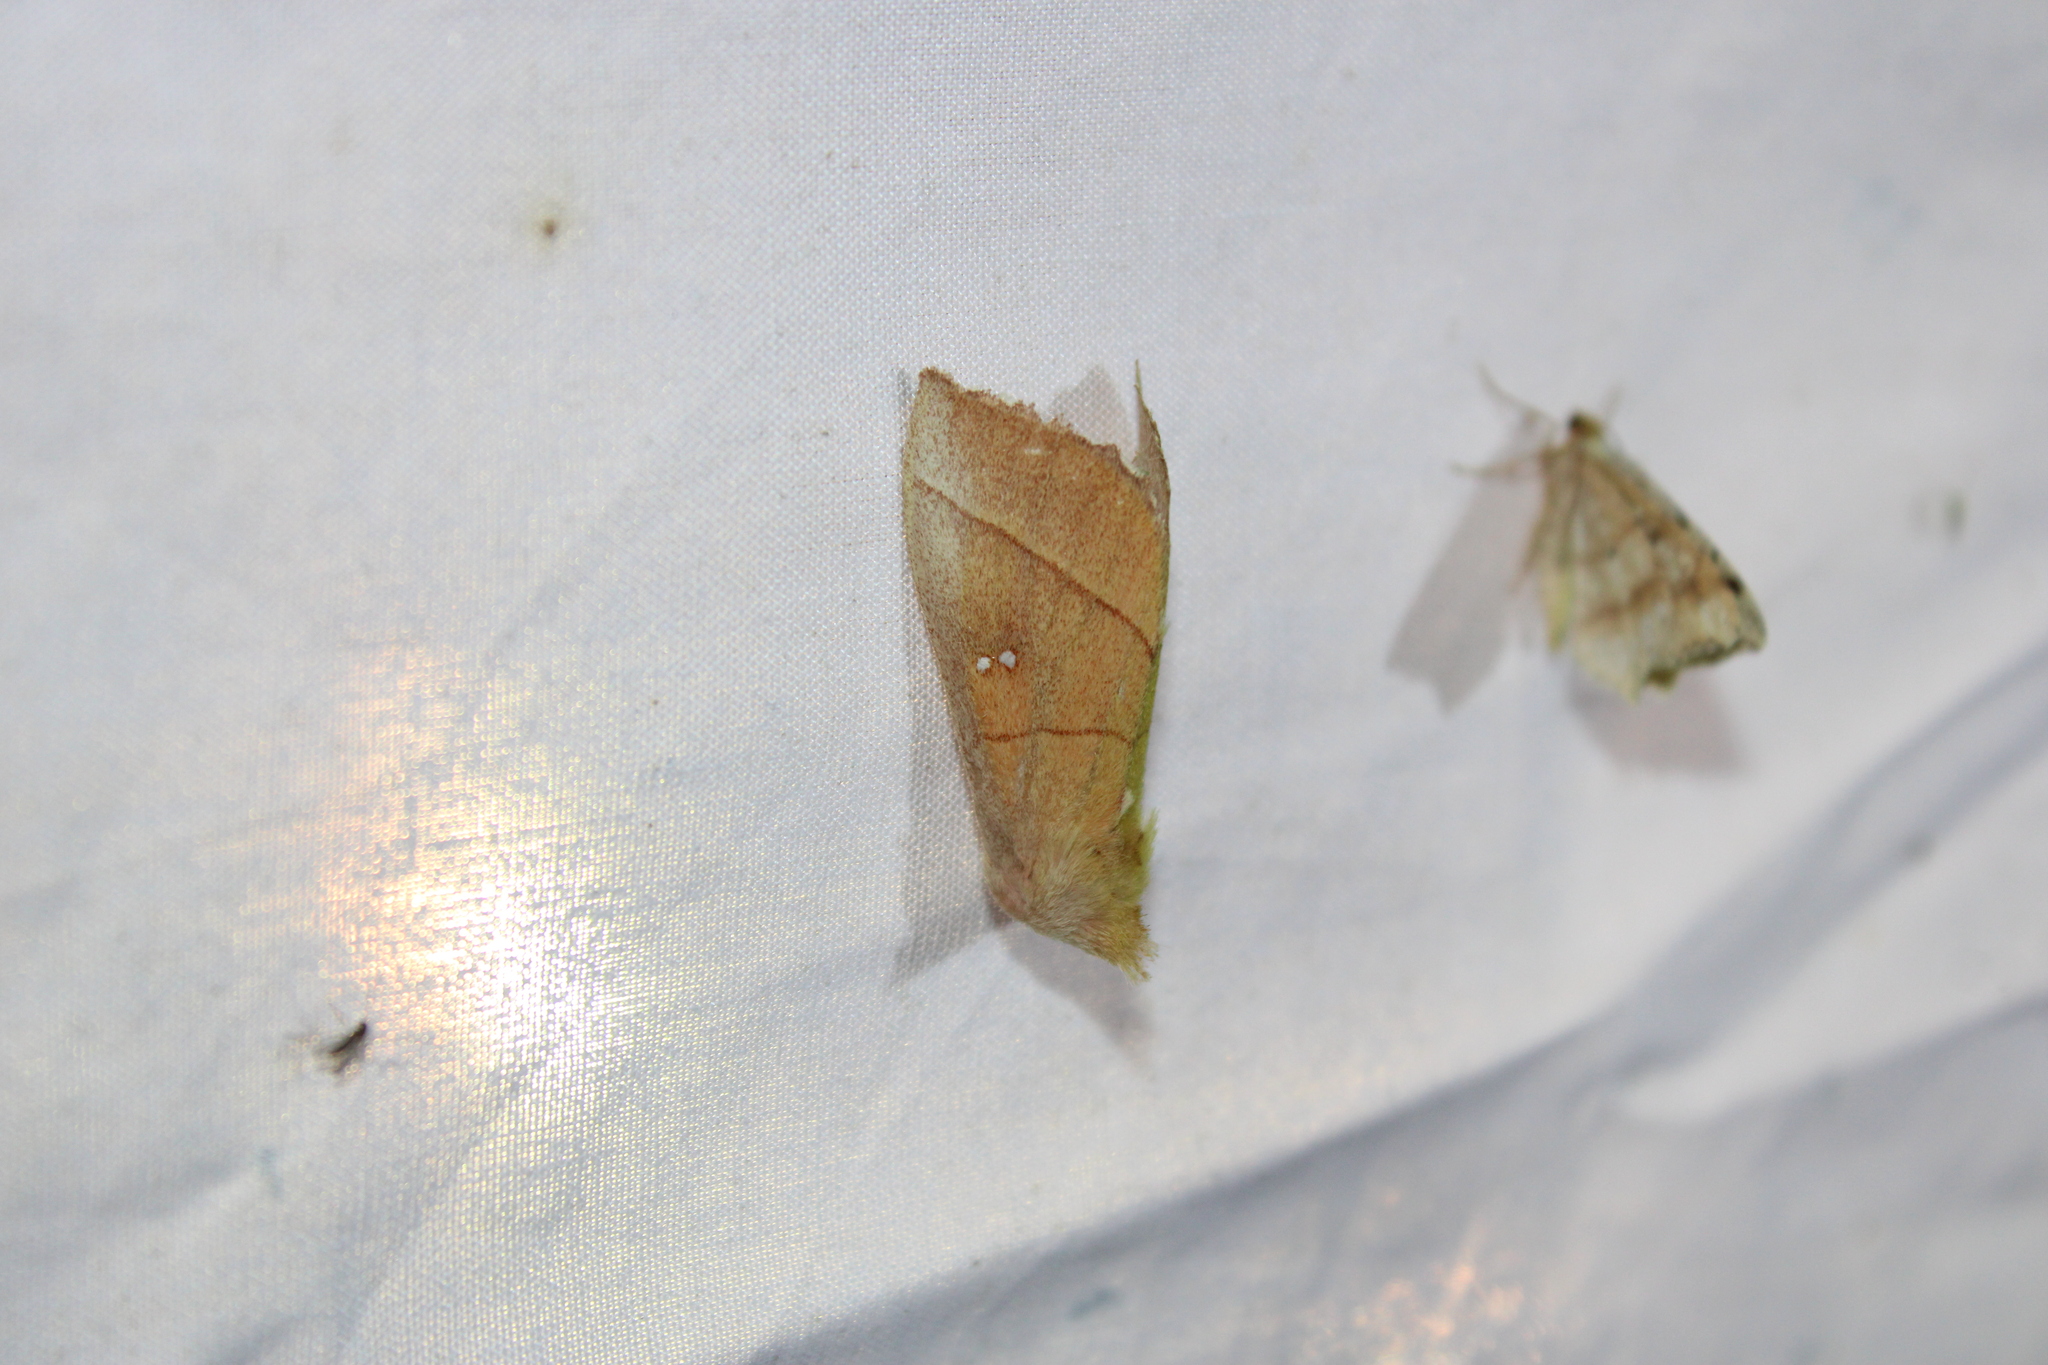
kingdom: Animalia
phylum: Arthropoda
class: Insecta
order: Lepidoptera
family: Notodontidae
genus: Nadata
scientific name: Nadata gibbosa
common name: White-dotted prominent
